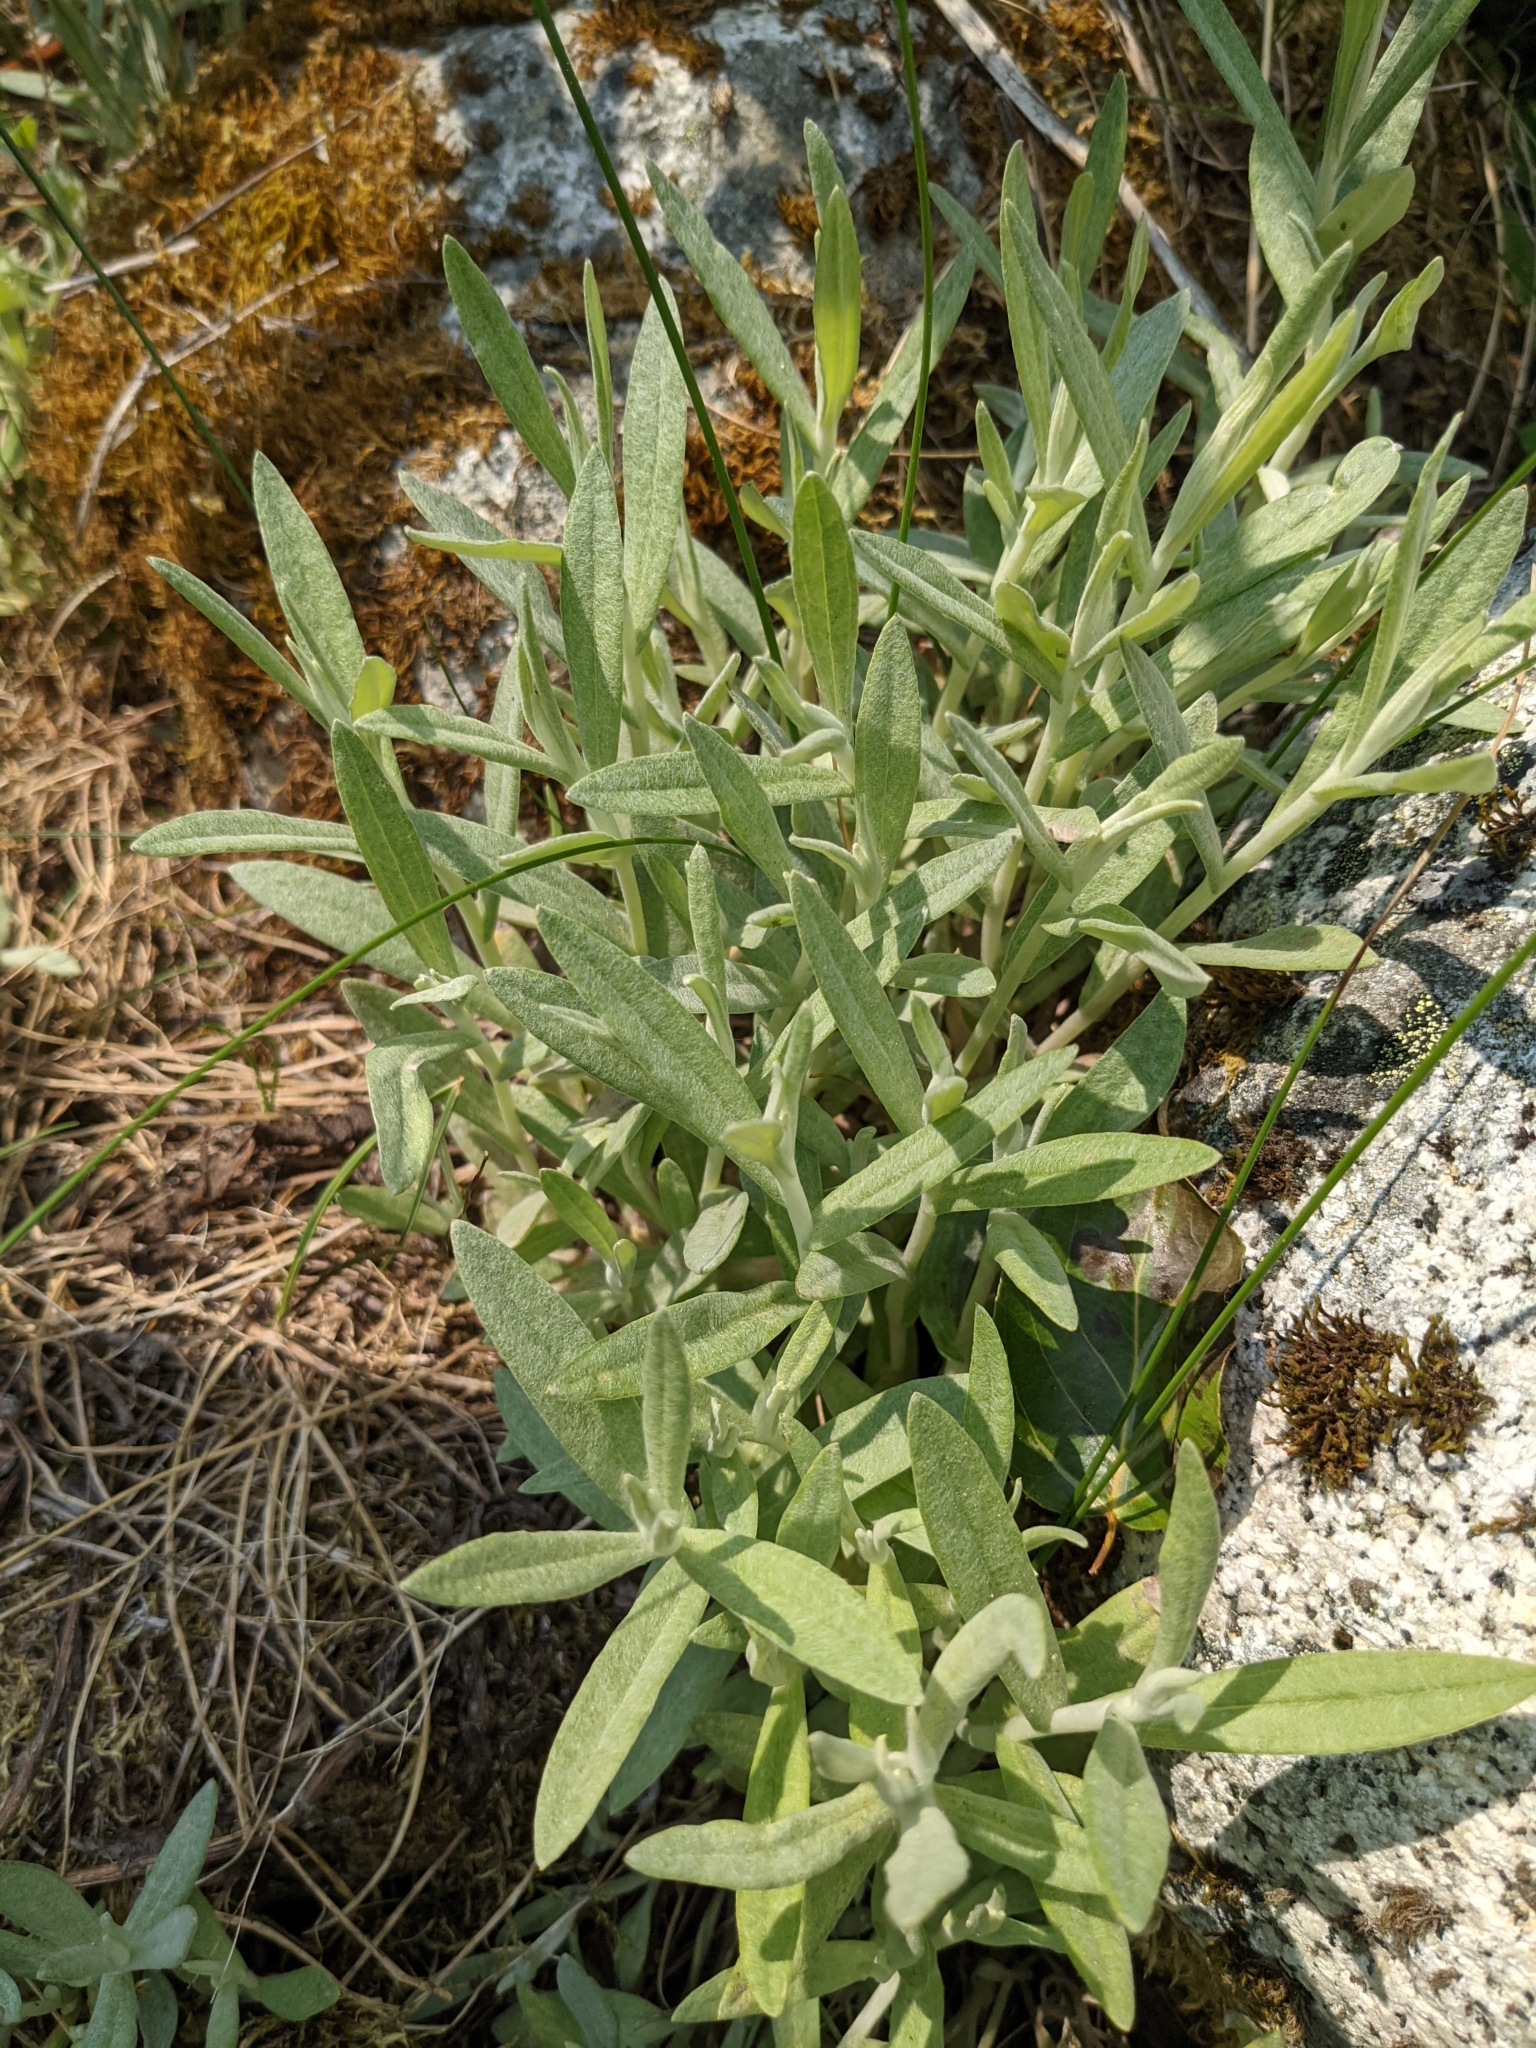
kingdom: Plantae
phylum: Tracheophyta
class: Magnoliopsida
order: Asterales
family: Asteraceae
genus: Anaphalis
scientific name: Anaphalis margaritacea
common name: Pearly everlasting
